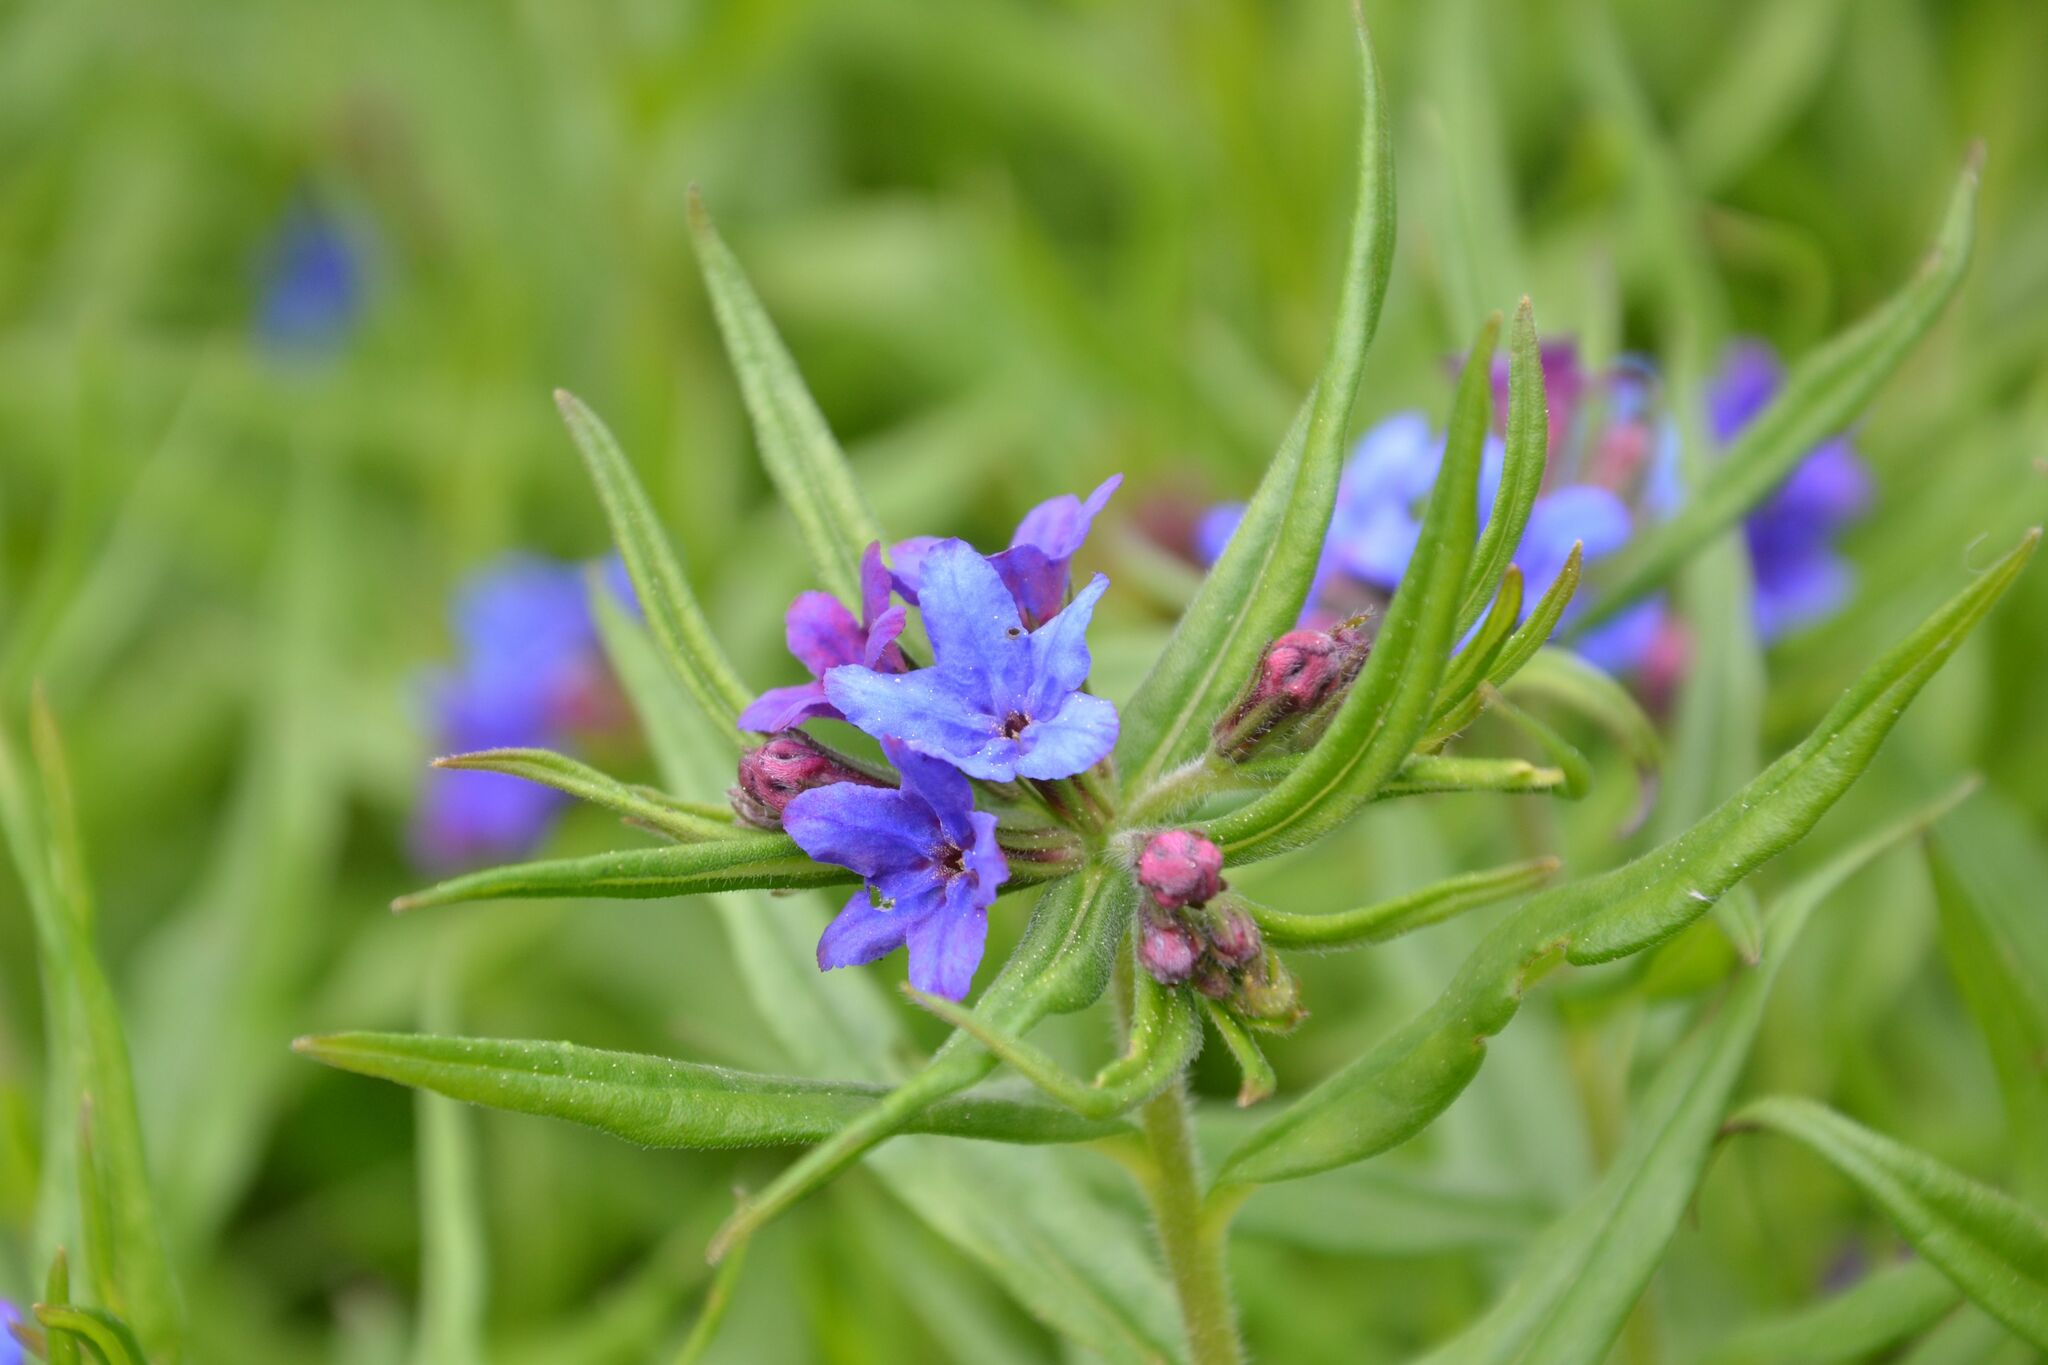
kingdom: Plantae
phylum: Tracheophyta
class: Magnoliopsida
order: Boraginales
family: Boraginaceae
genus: Aegonychon
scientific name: Aegonychon purpurocaeruleum
